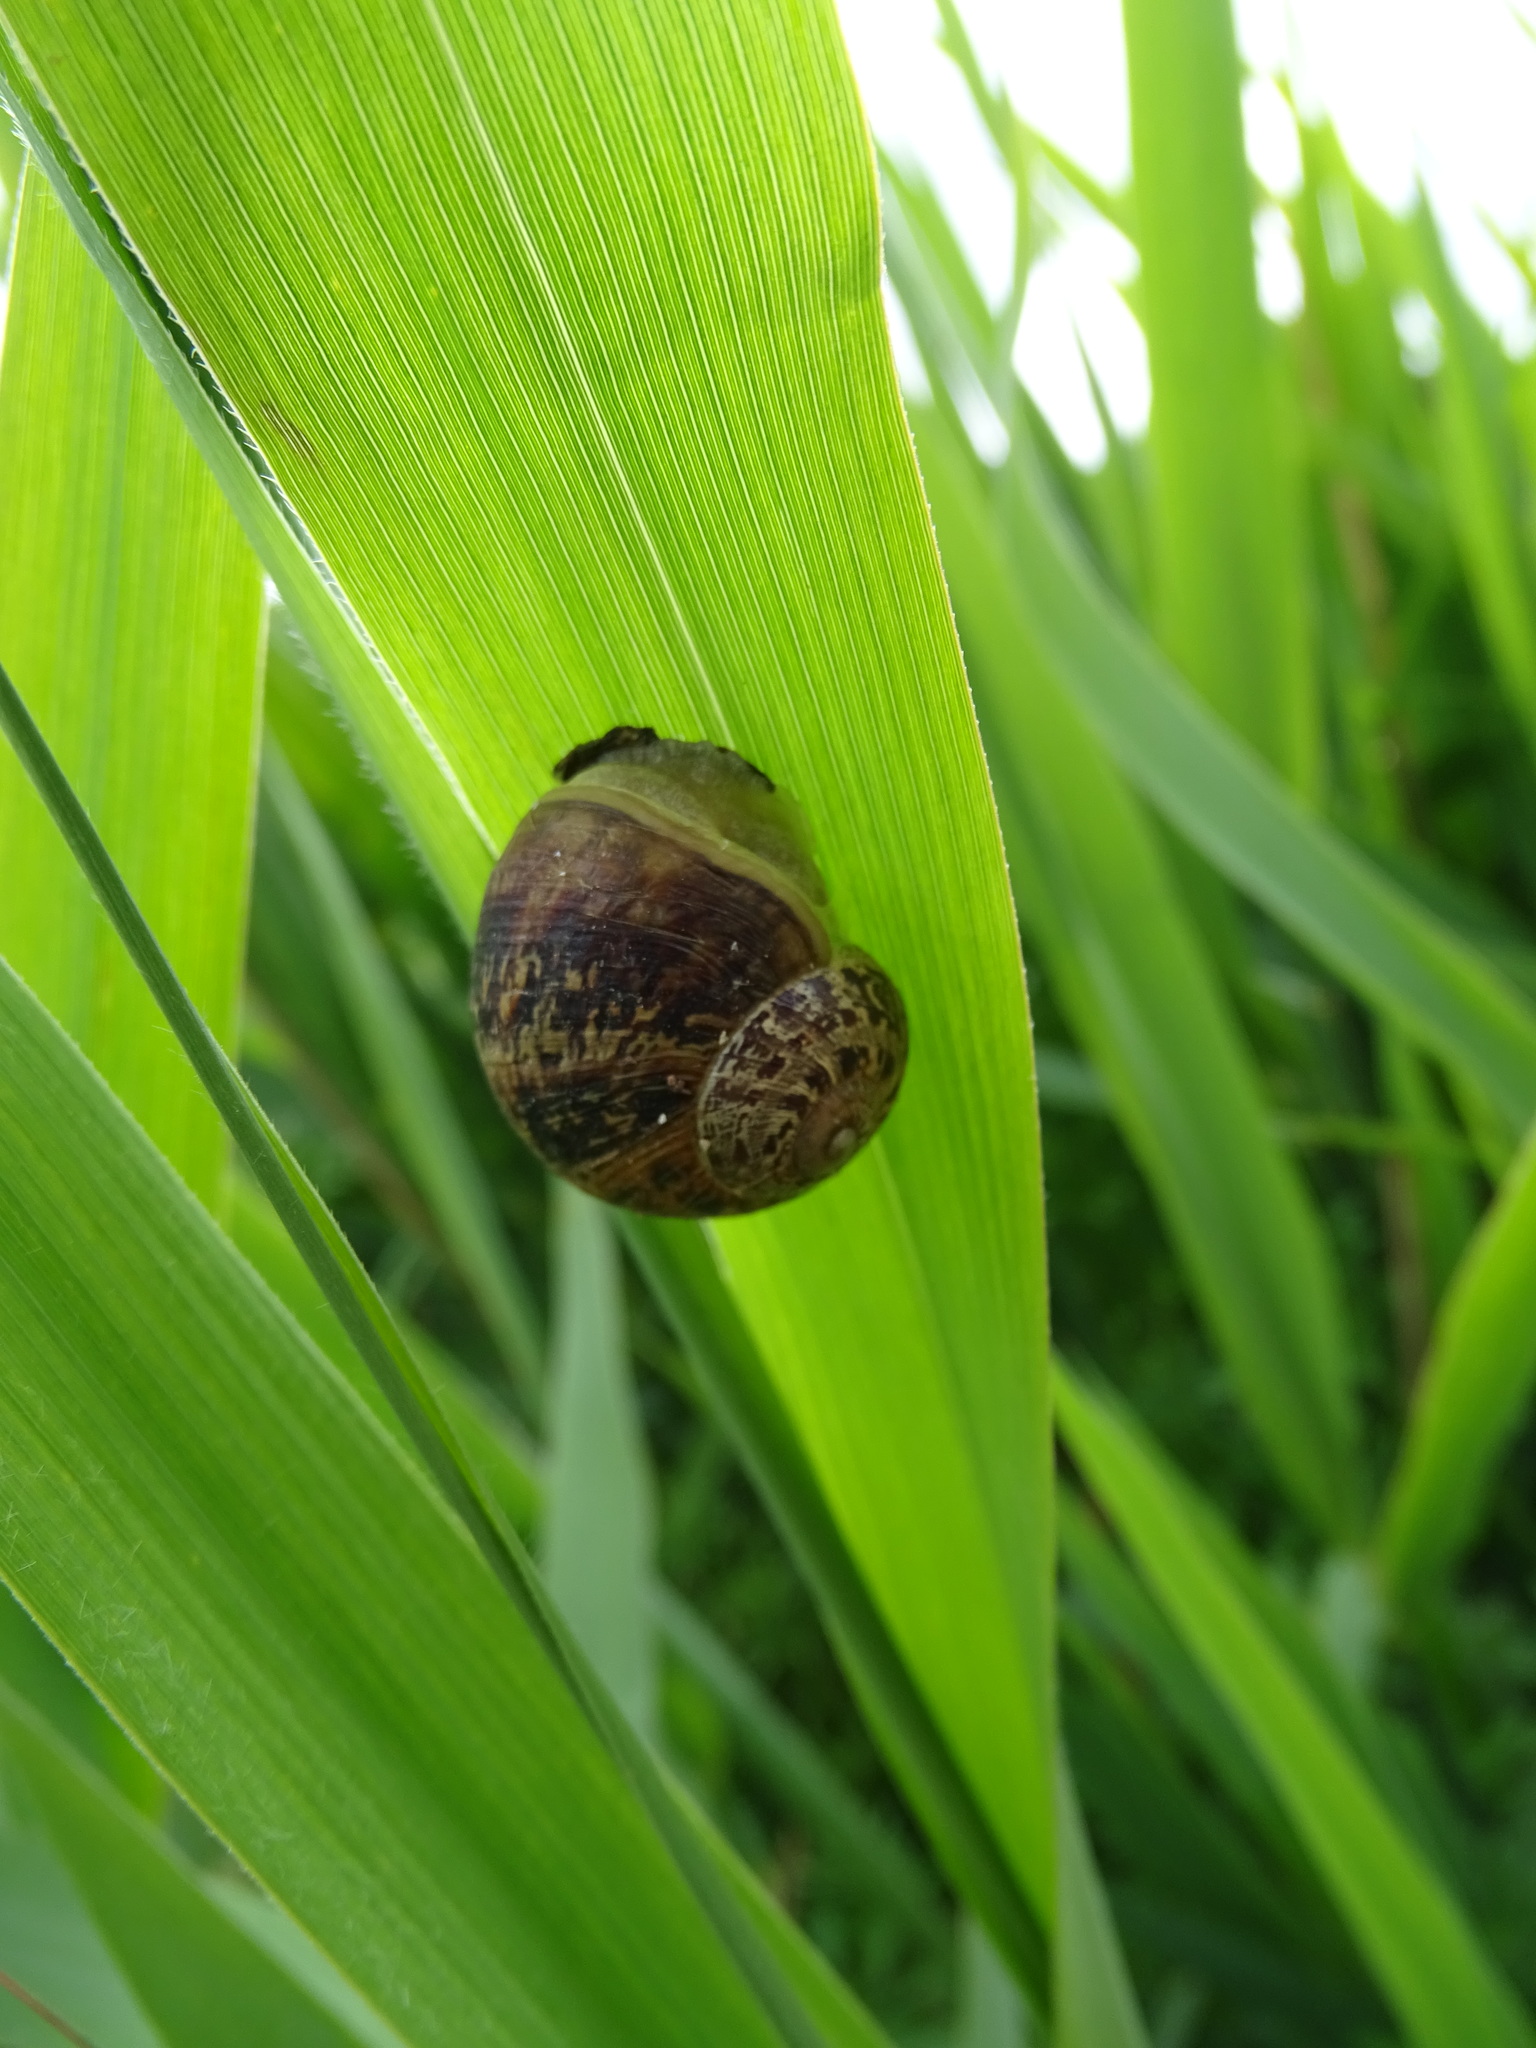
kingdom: Animalia
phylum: Mollusca
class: Gastropoda
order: Stylommatophora
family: Helicidae
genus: Cornu
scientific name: Cornu aspersum
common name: Brown garden snail
